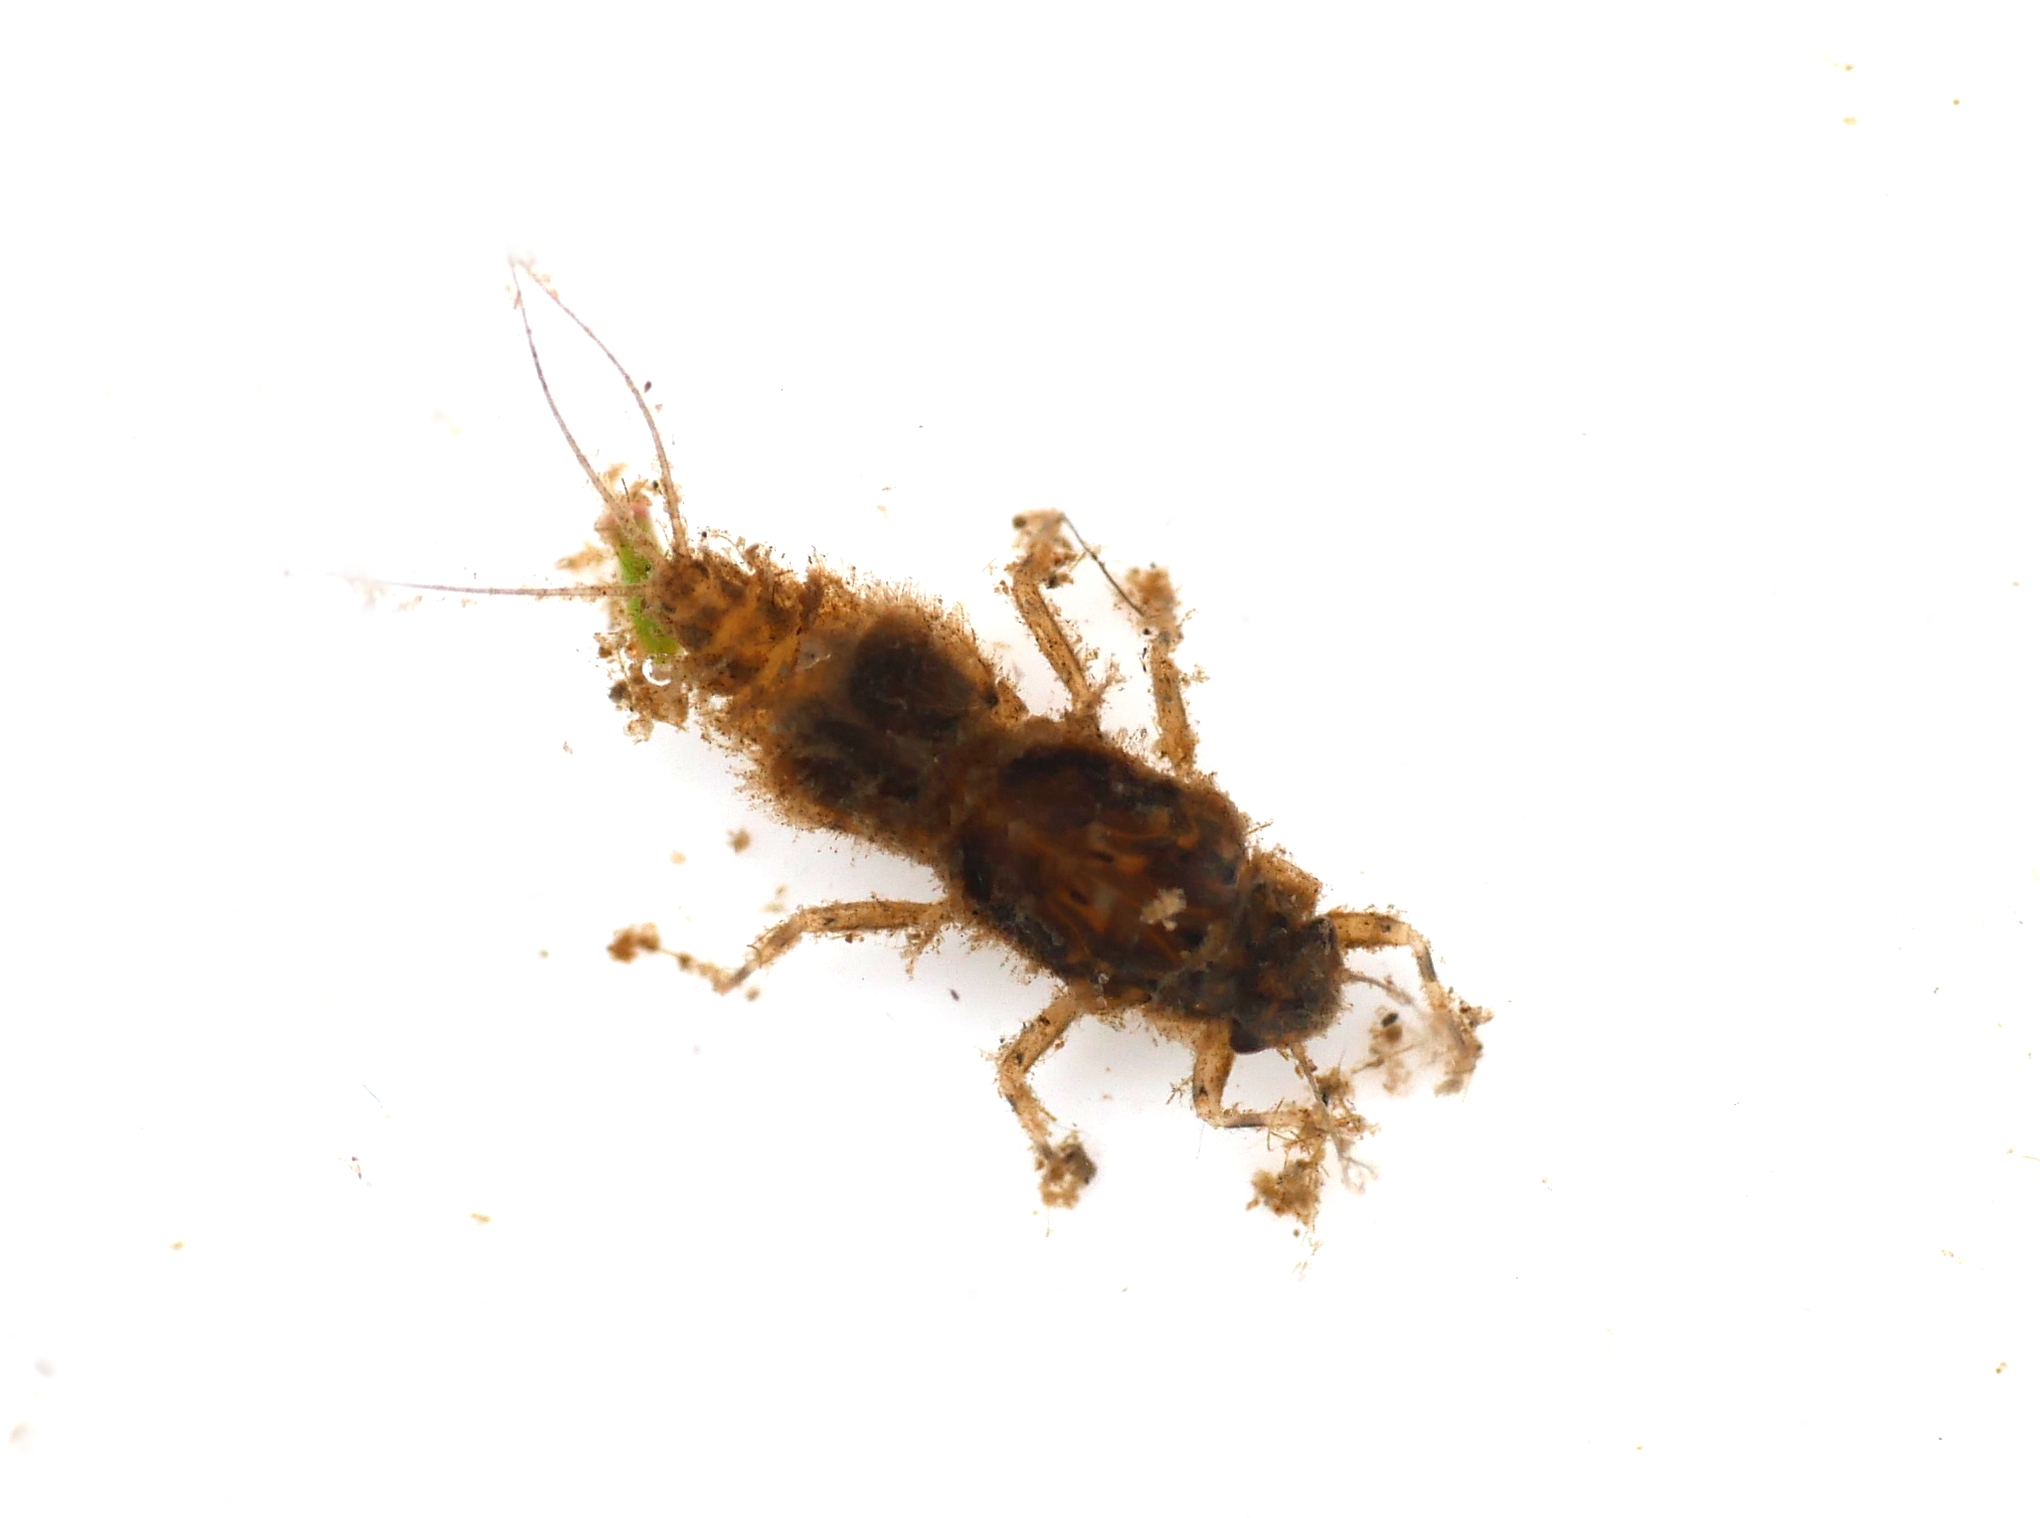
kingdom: Animalia
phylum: Arthropoda
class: Insecta
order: Ephemeroptera
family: Caenidae
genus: Caenis
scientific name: Caenis rivulorum
